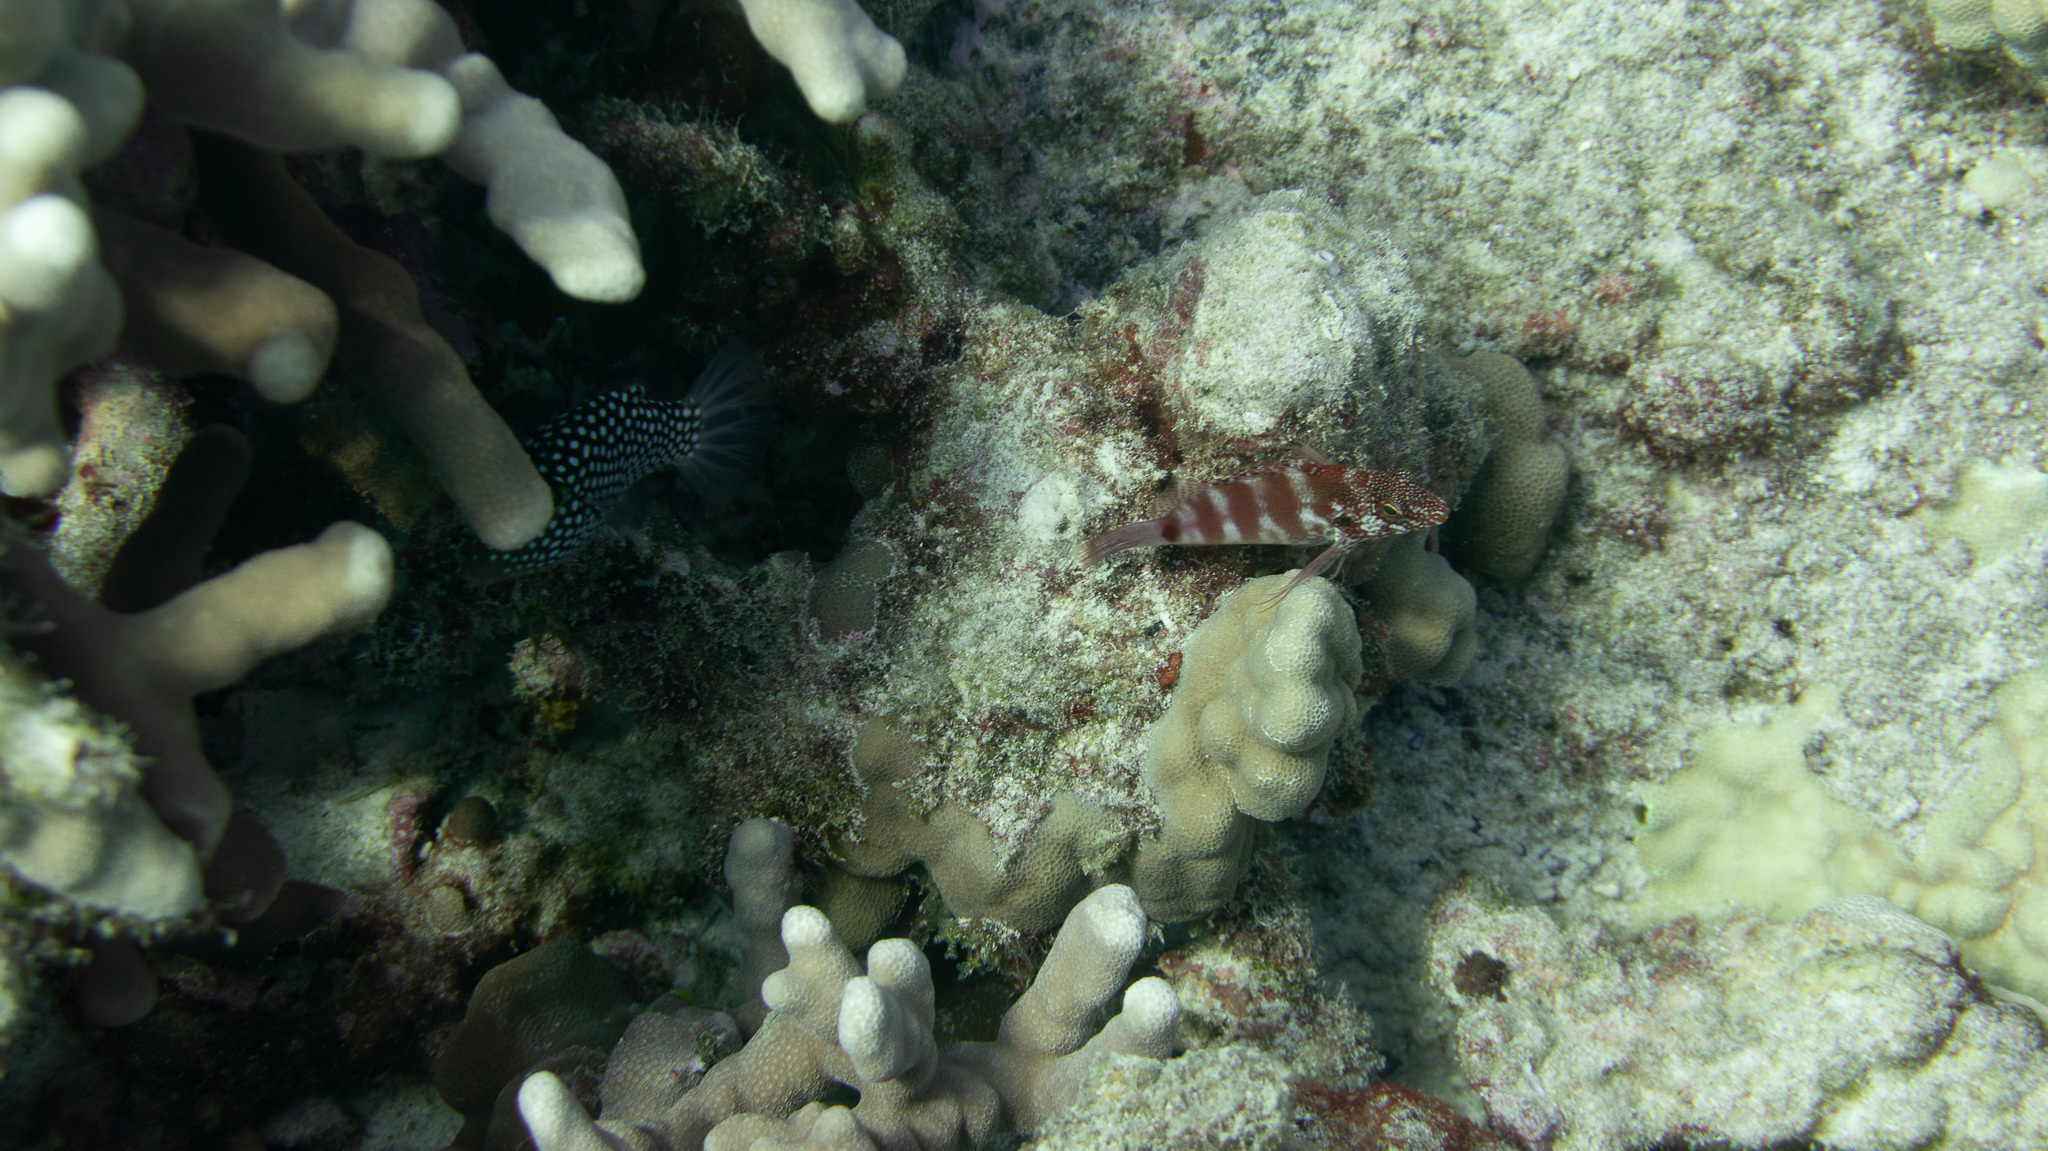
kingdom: Animalia
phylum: Chordata
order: Perciformes
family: Cirrhitidae
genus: Cirrhitops
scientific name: Cirrhitops fasciatus
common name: Redbarred hawkfish
